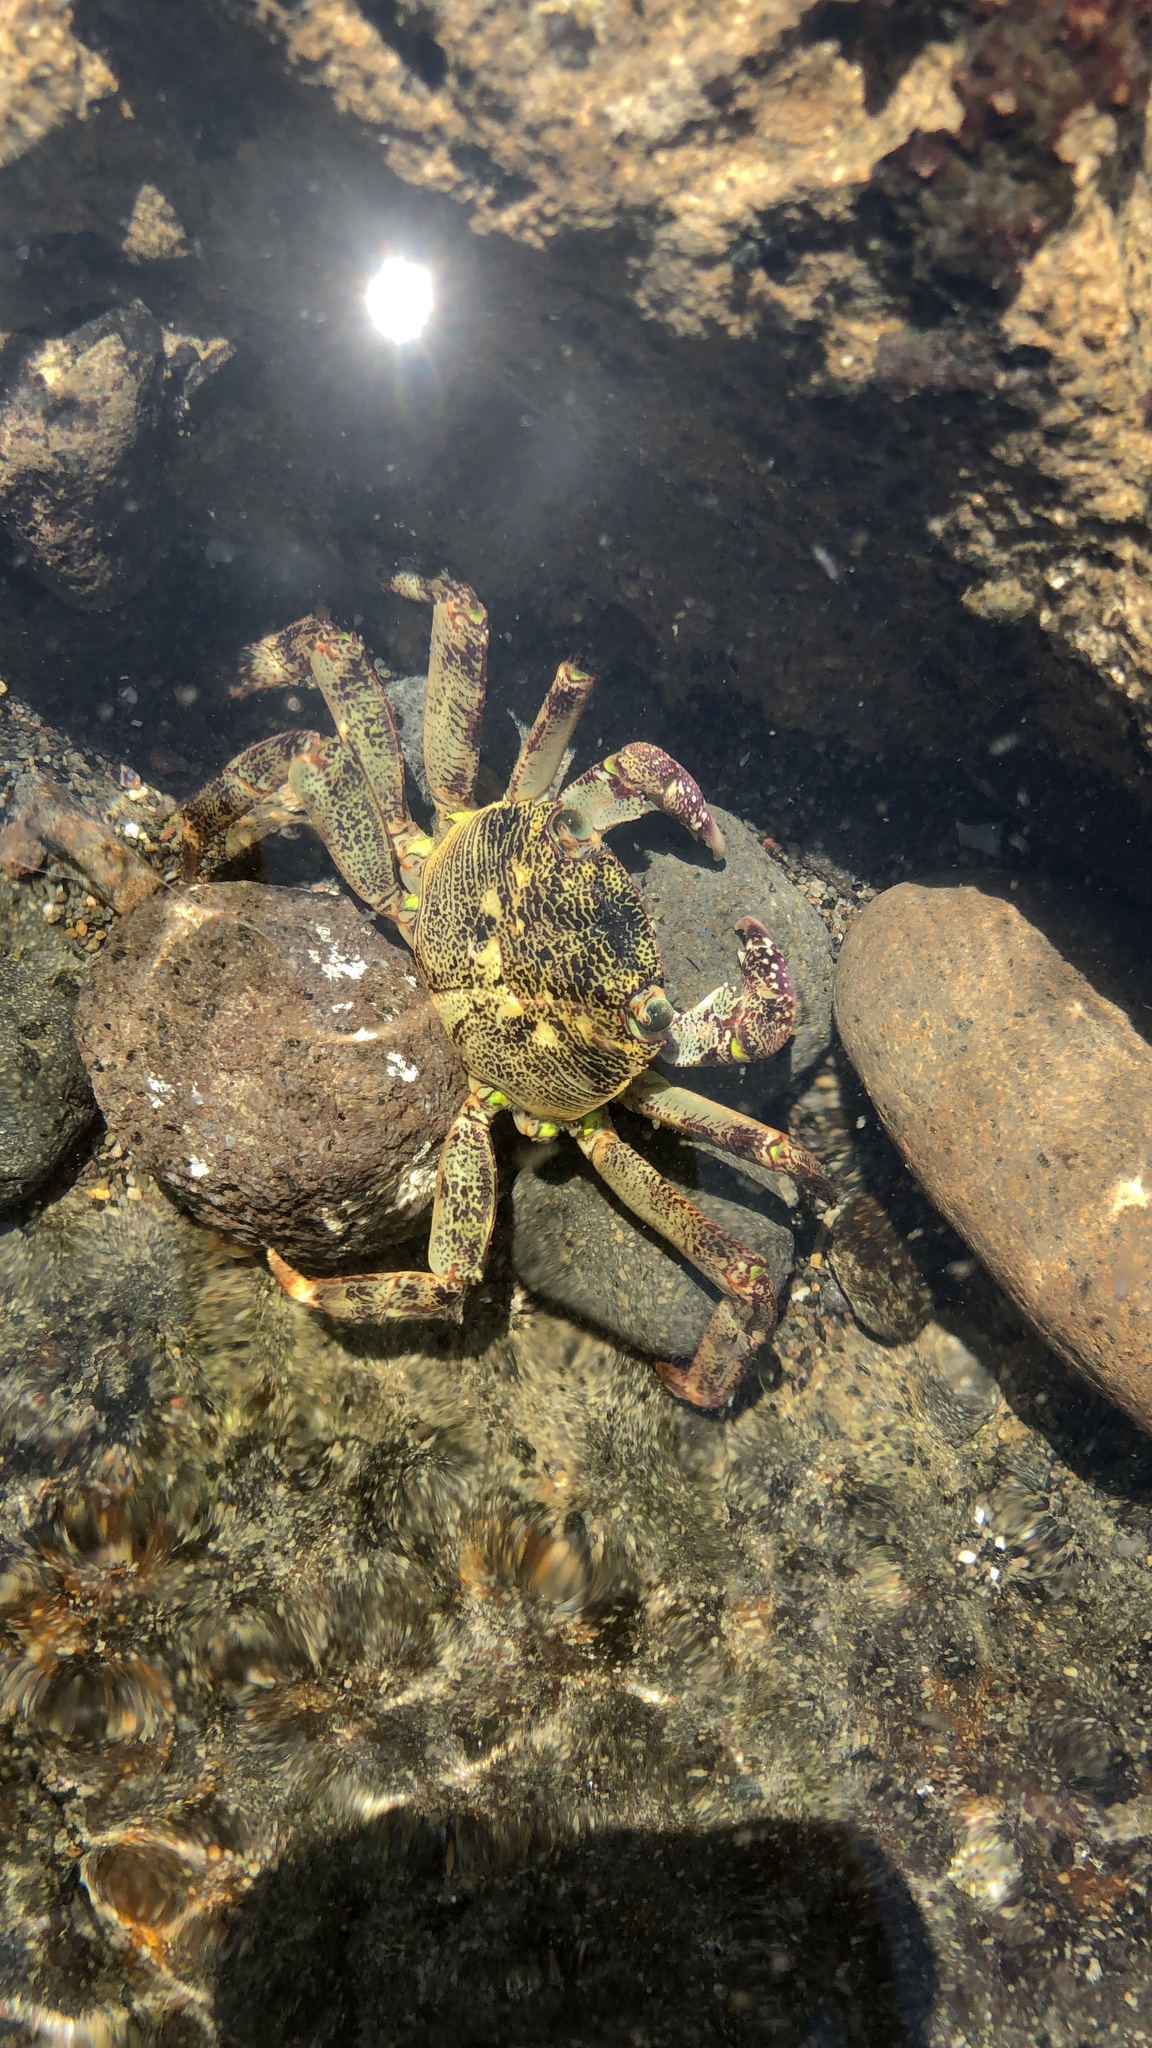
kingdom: Animalia
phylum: Arthropoda
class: Malacostraca
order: Decapoda
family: Grapsidae
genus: Leptograpsus
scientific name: Leptograpsus variegatus
